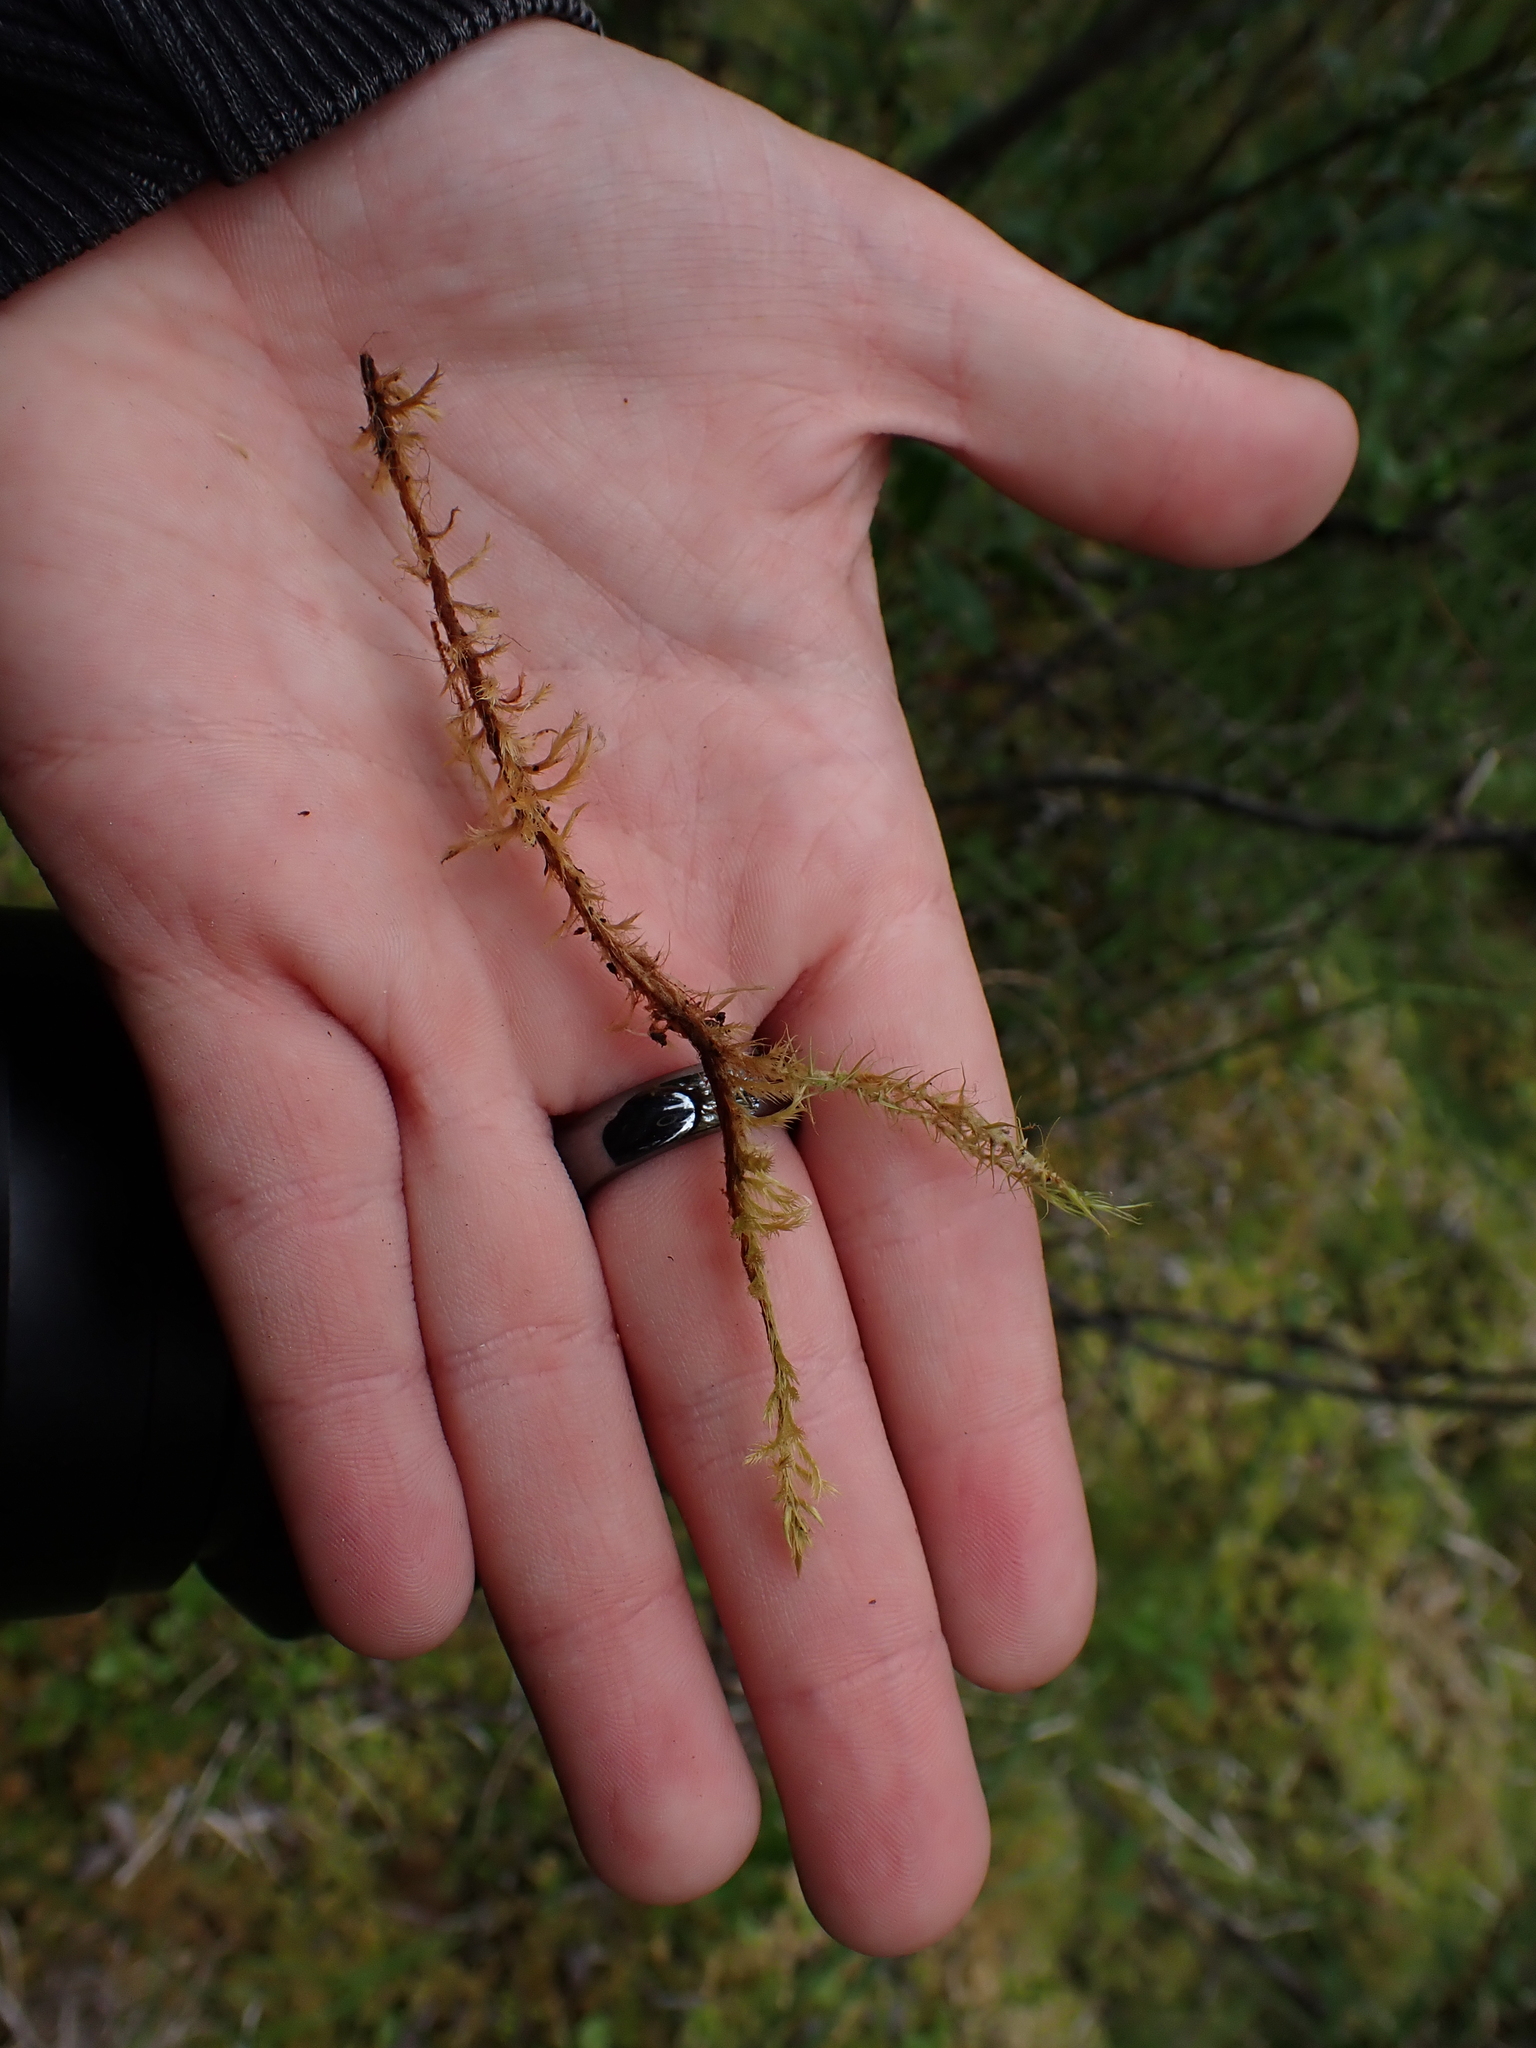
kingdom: Plantae
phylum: Bryophyta
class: Bryopsida
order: Hypnales
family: Amblystegiaceae
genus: Tomentypnum
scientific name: Tomentypnum nitens
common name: Golden fuzzy fen moss
